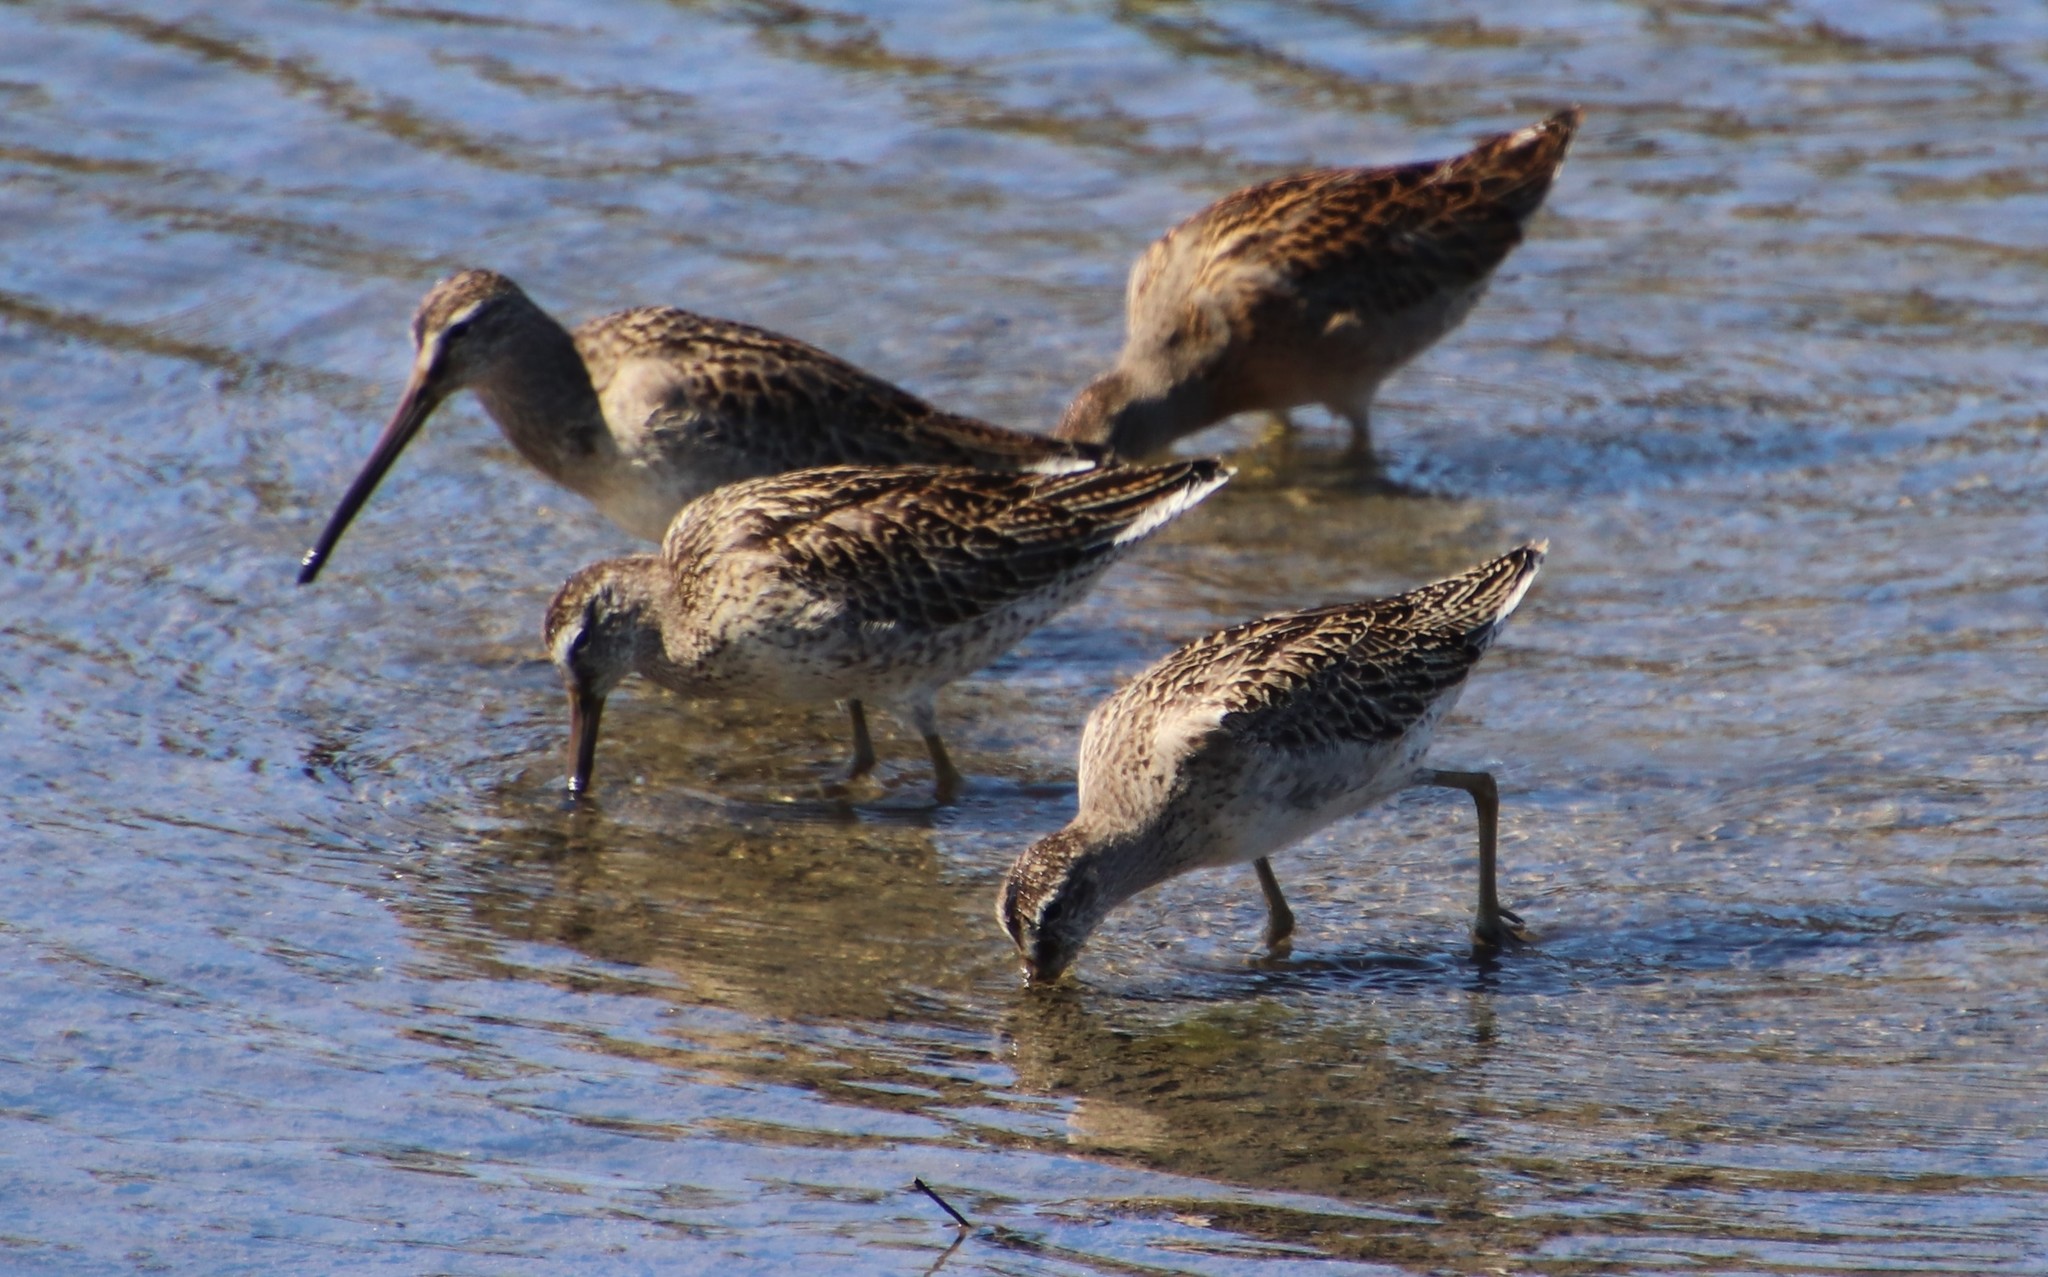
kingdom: Animalia
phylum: Chordata
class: Aves
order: Charadriiformes
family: Scolopacidae
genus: Limnodromus
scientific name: Limnodromus griseus
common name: Short-billed dowitcher
